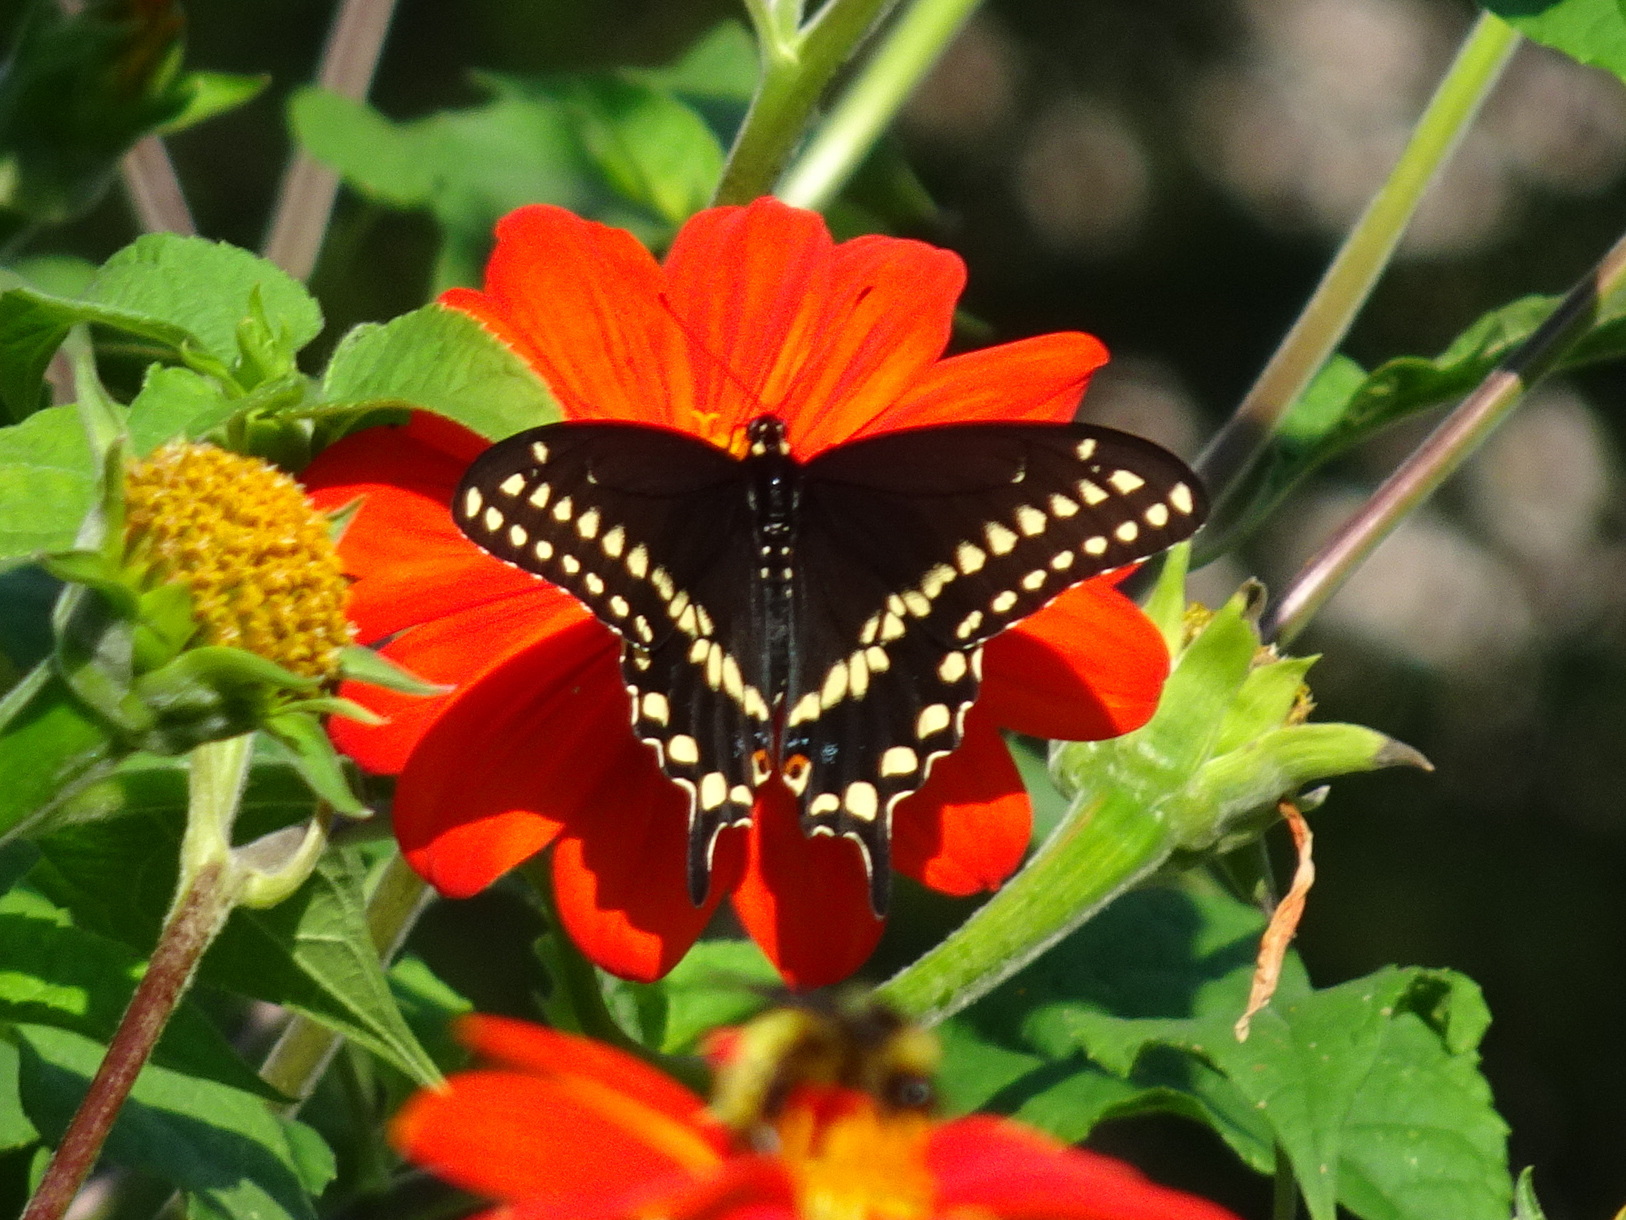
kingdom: Animalia
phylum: Arthropoda
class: Insecta
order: Lepidoptera
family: Papilionidae
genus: Papilio
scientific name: Papilio polyxenes
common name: Black swallowtail
